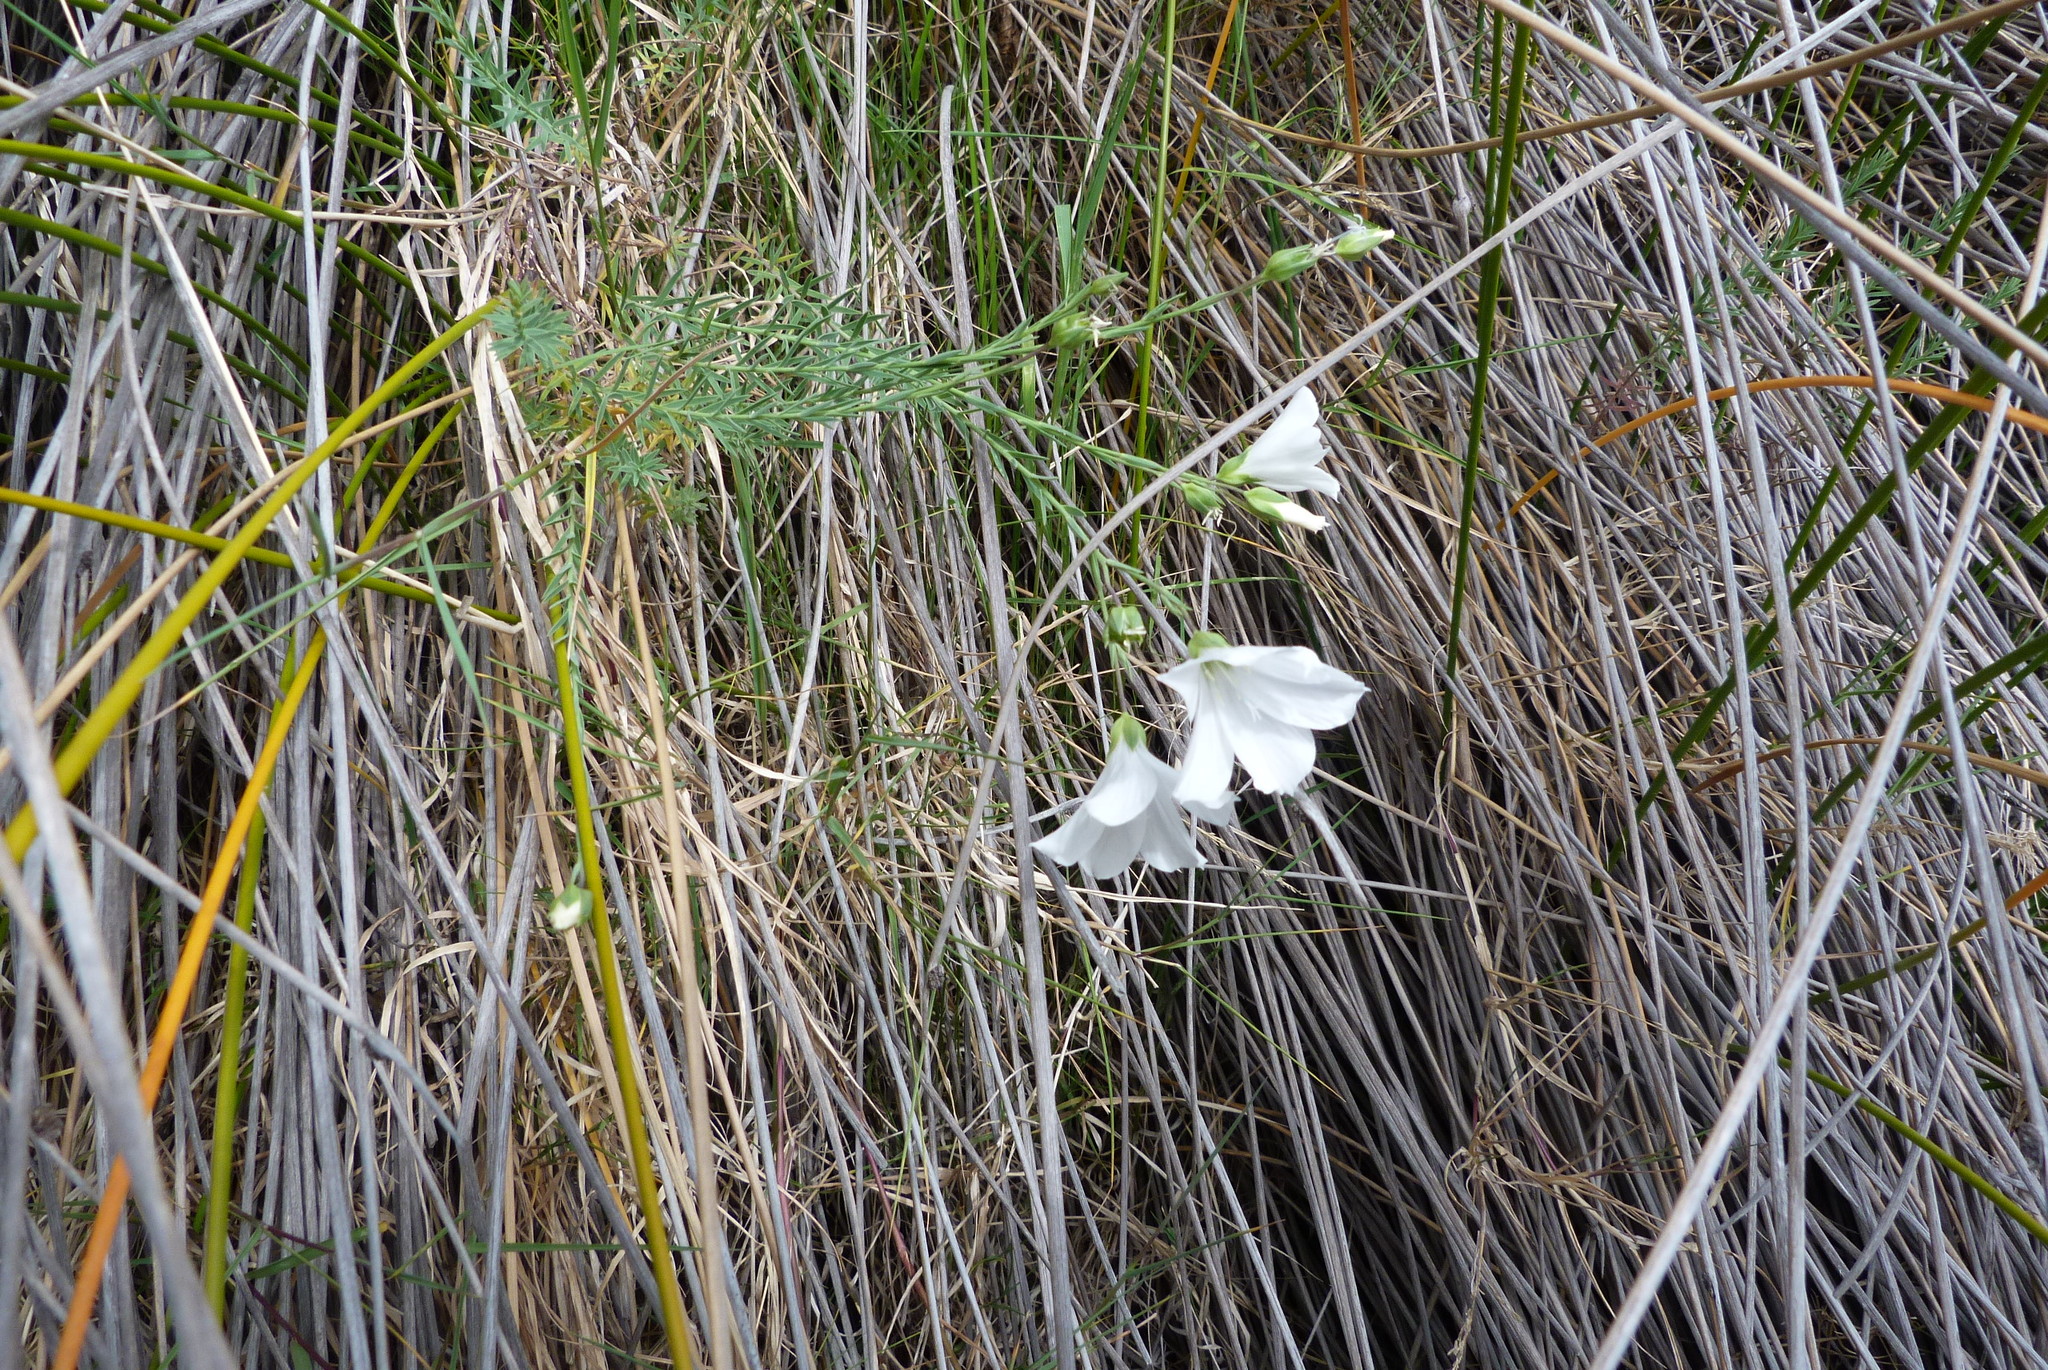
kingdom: Plantae
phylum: Tracheophyta
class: Magnoliopsida
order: Malpighiales
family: Linaceae
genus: Linum
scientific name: Linum monogynum
